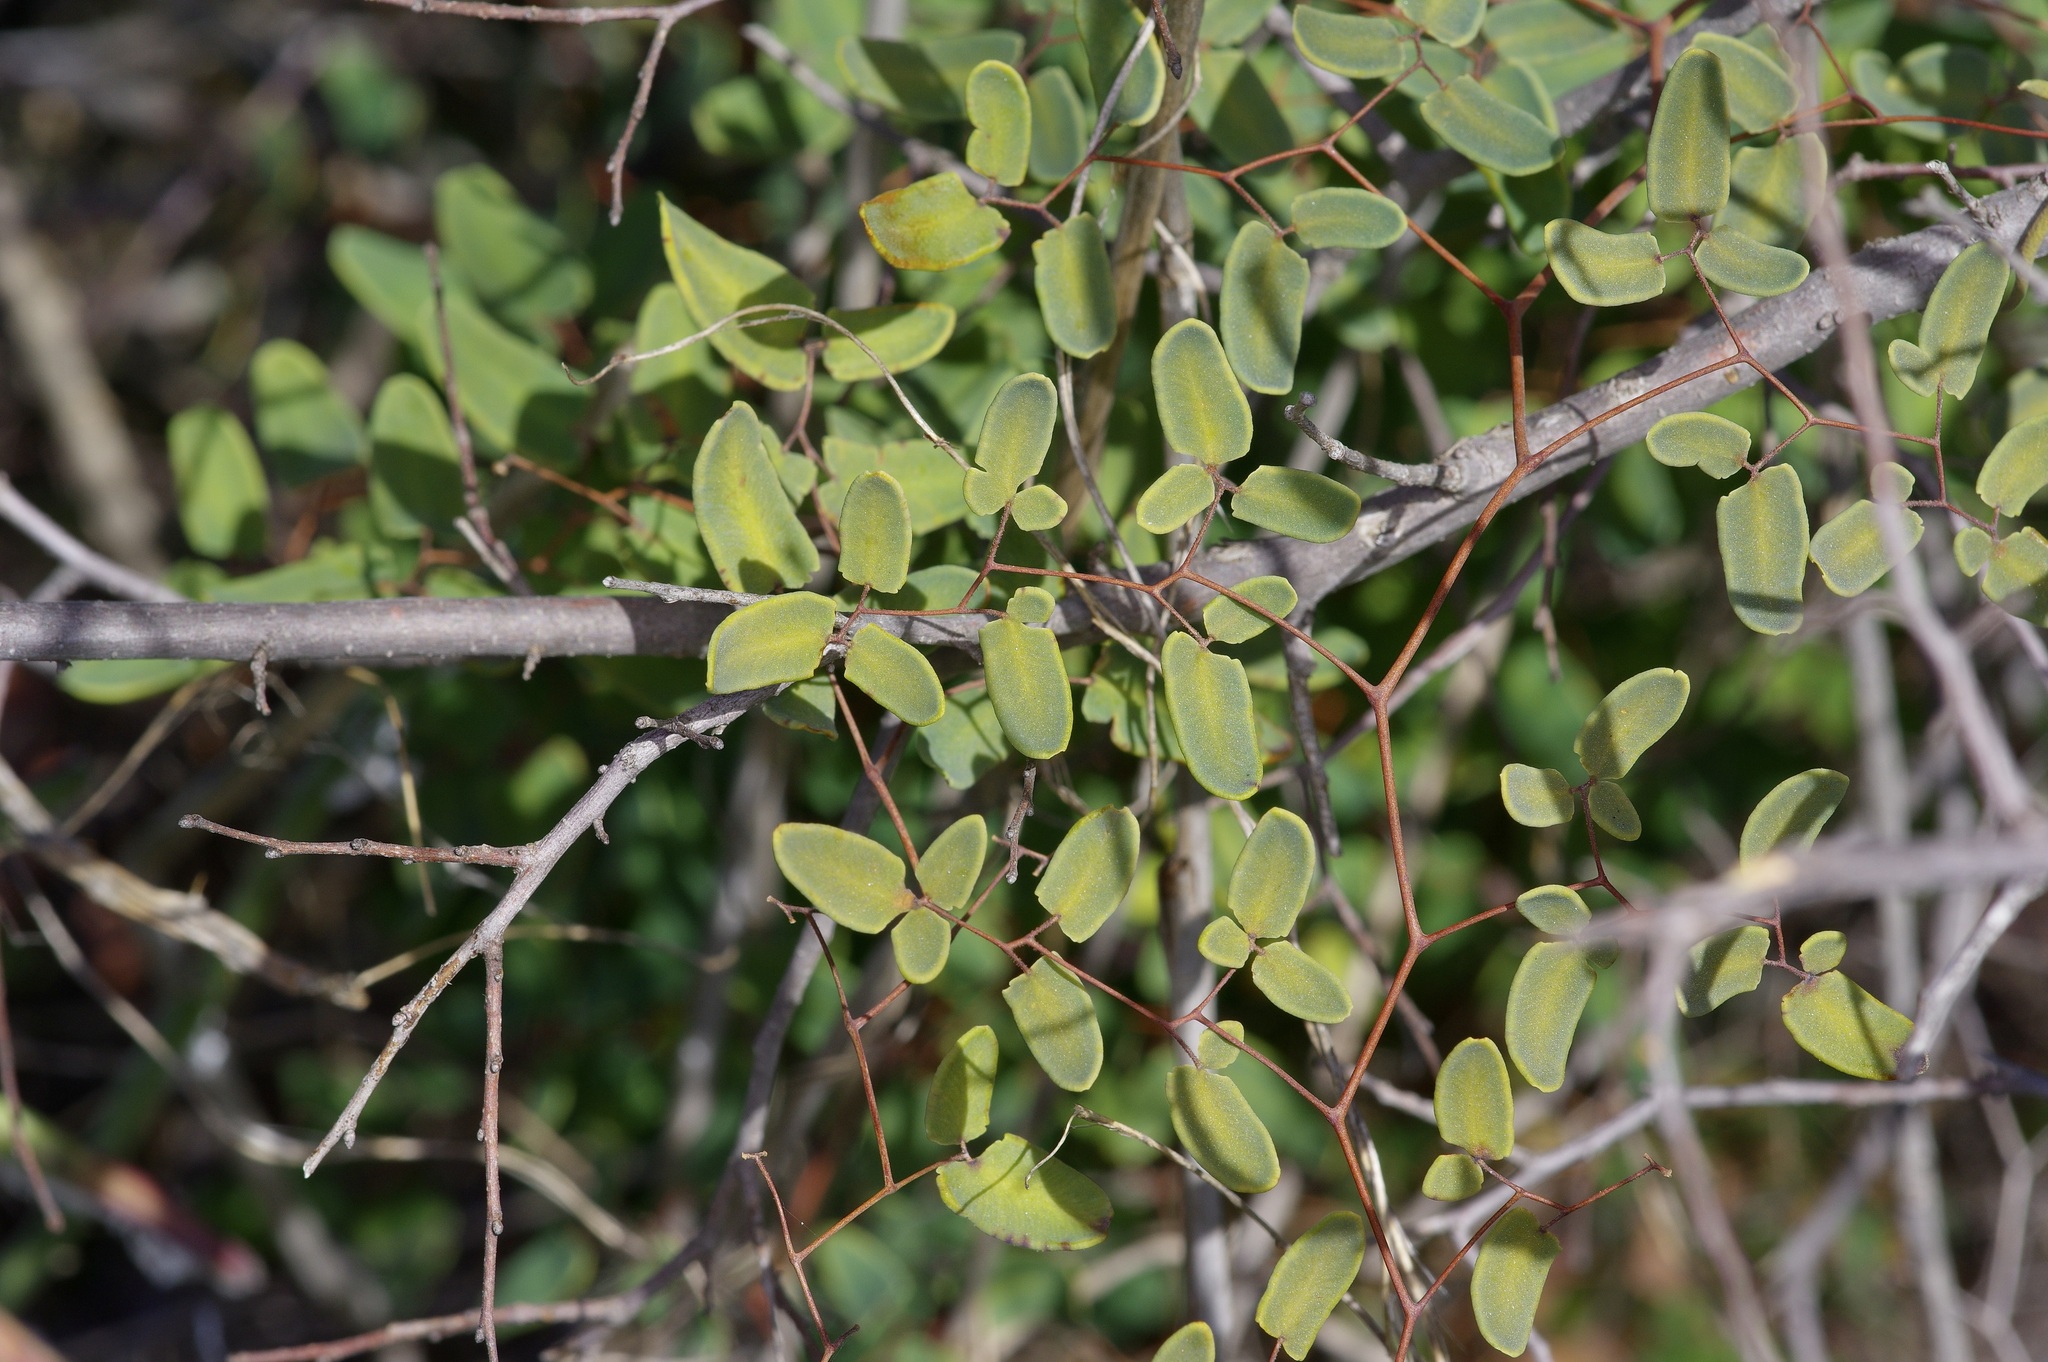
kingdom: Plantae
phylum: Tracheophyta
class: Polypodiopsida
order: Polypodiales
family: Pteridaceae
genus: Pellaea
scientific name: Pellaea ovata
